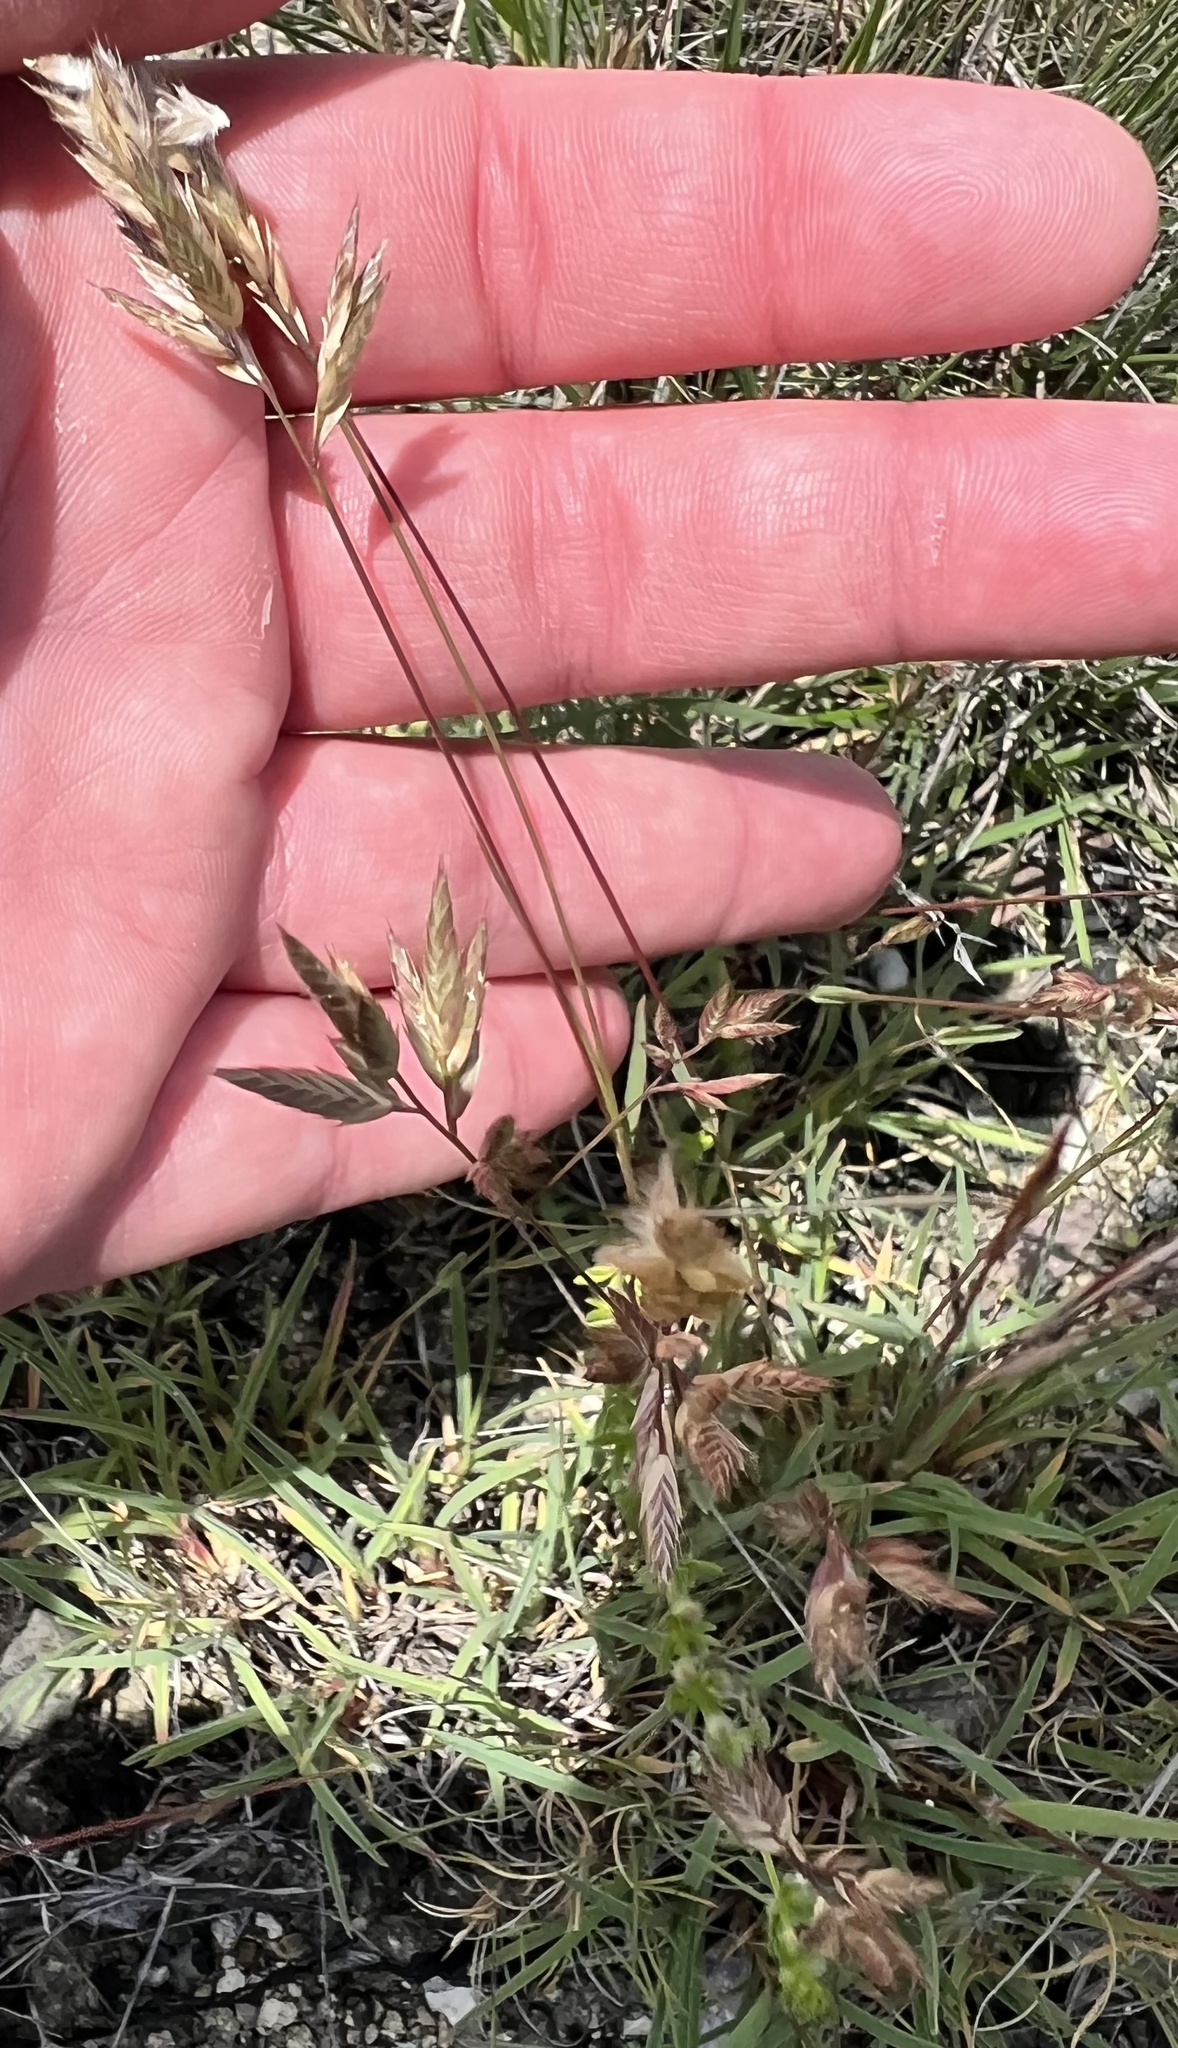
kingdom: Plantae
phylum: Tracheophyta
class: Liliopsida
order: Poales
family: Poaceae
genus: Erioneuron
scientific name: Erioneuron pilosum
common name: Hairy woolly grass
